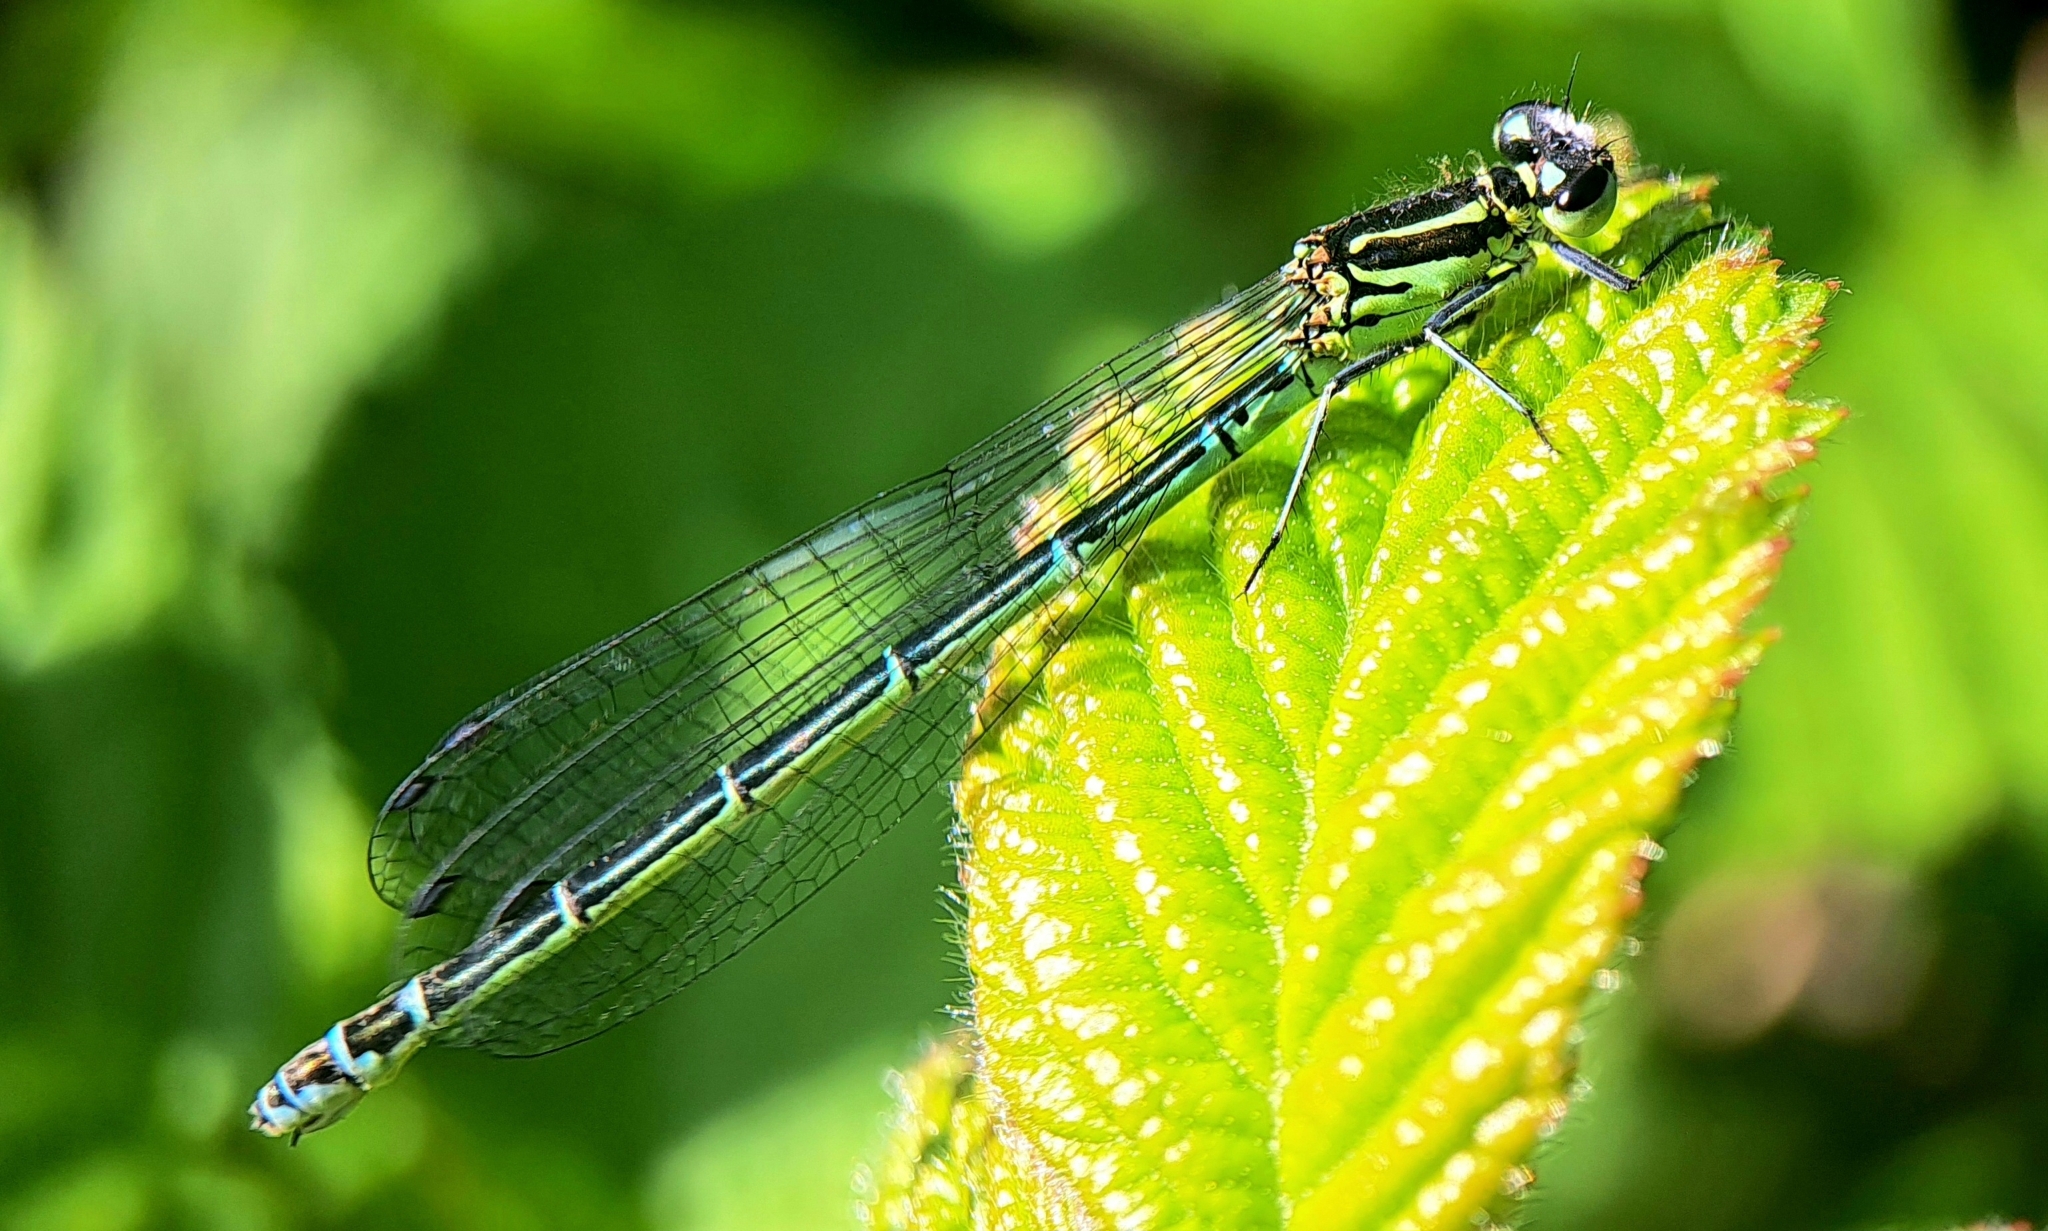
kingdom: Animalia
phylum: Arthropoda
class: Insecta
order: Odonata
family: Coenagrionidae
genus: Coenagrion
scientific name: Coenagrion puella
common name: Azure damselfly
